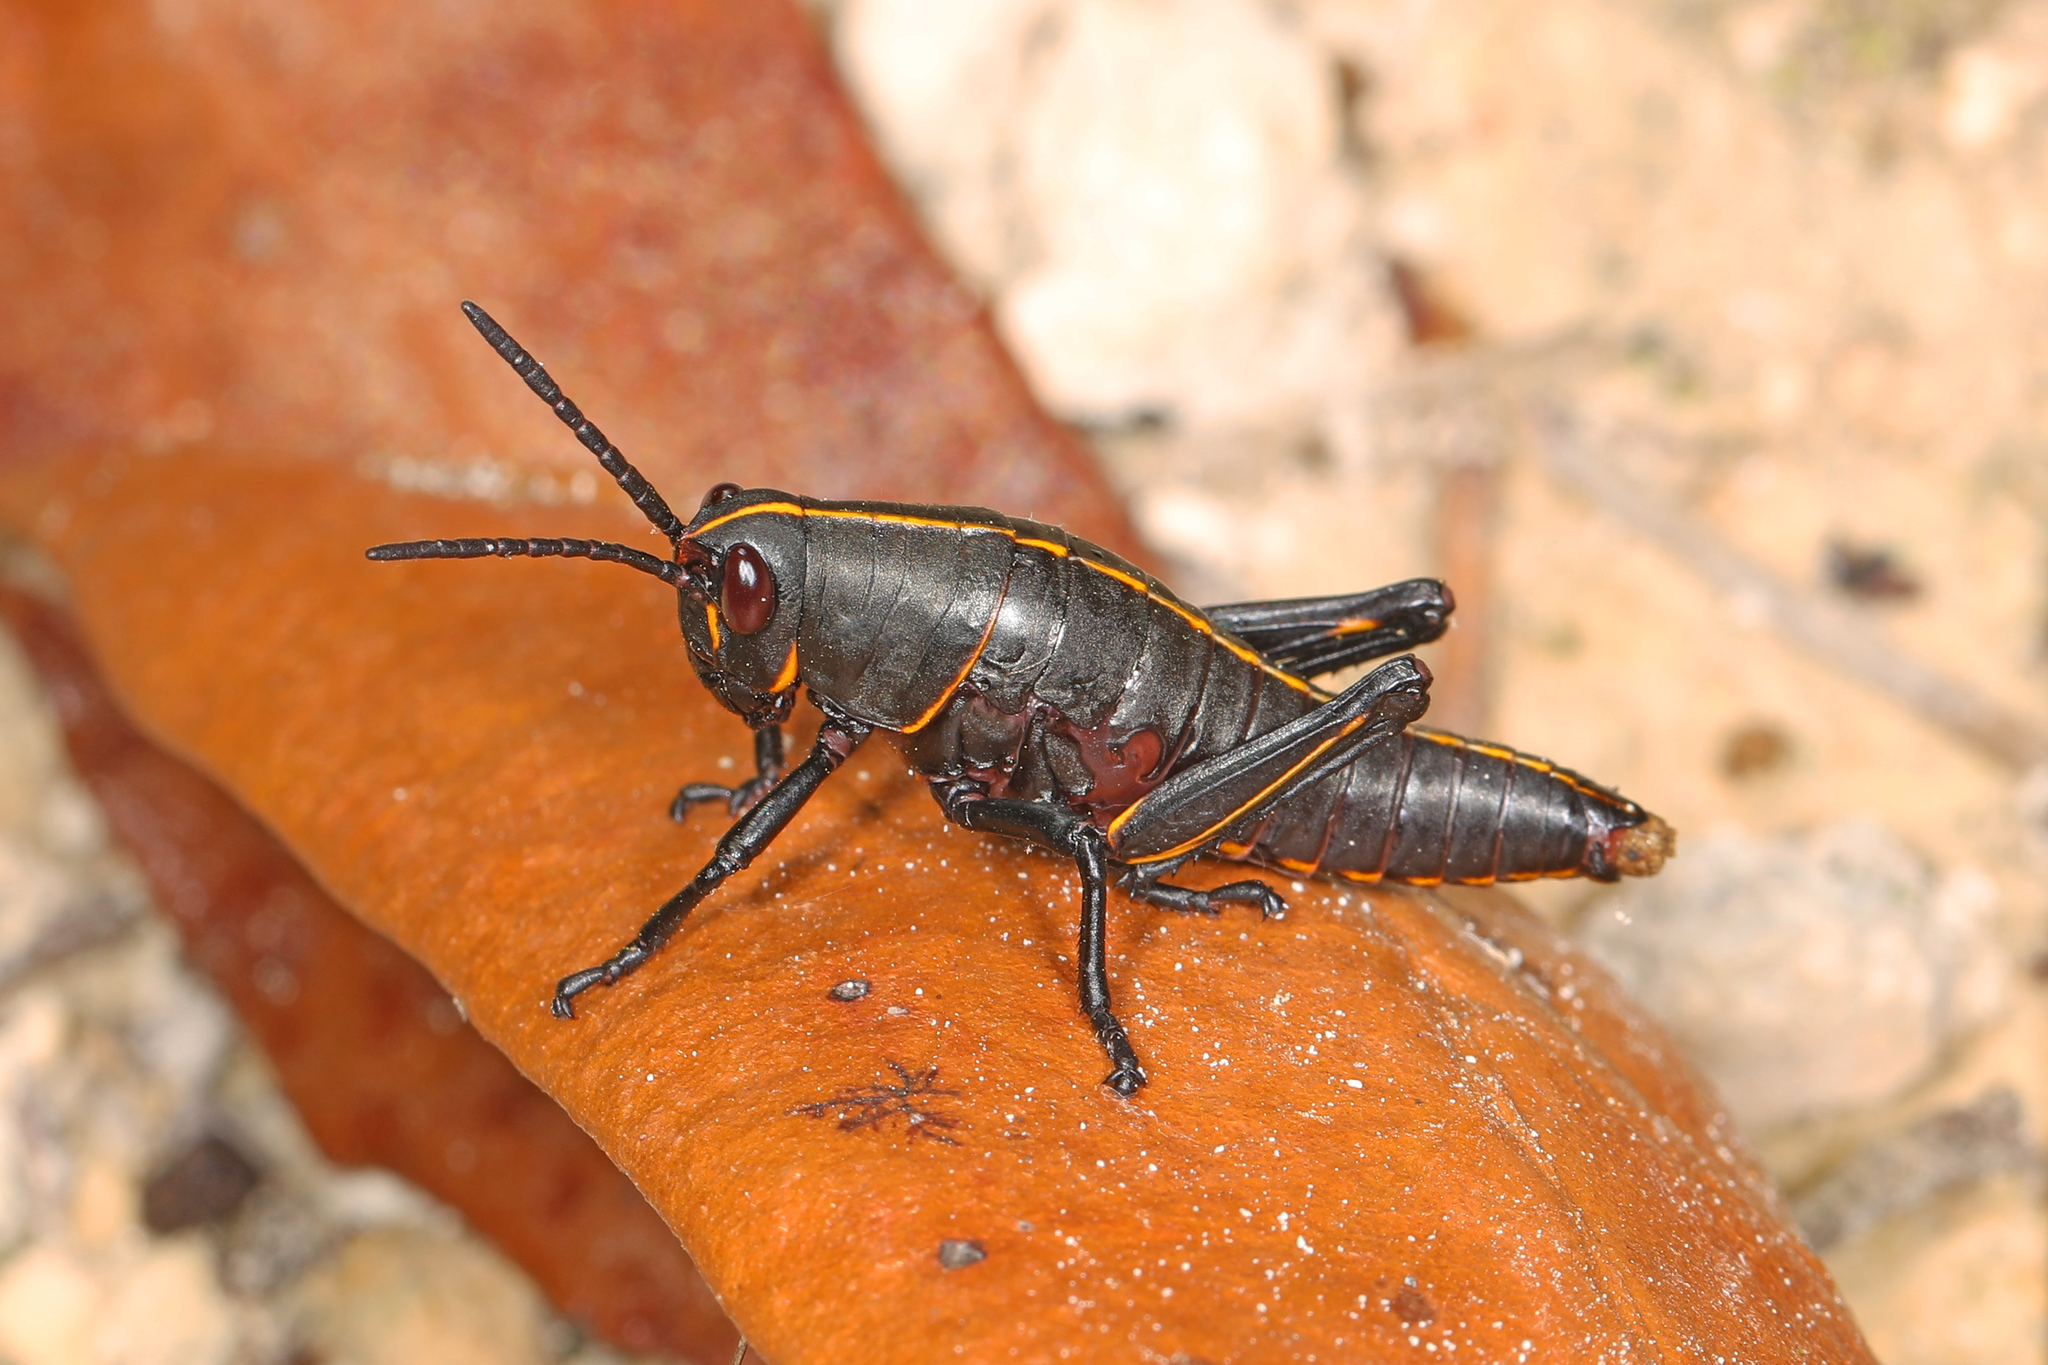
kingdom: Animalia
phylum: Arthropoda
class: Insecta
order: Orthoptera
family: Romaleidae
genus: Romalea
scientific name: Romalea microptera
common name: Eastern lubber grasshopper
